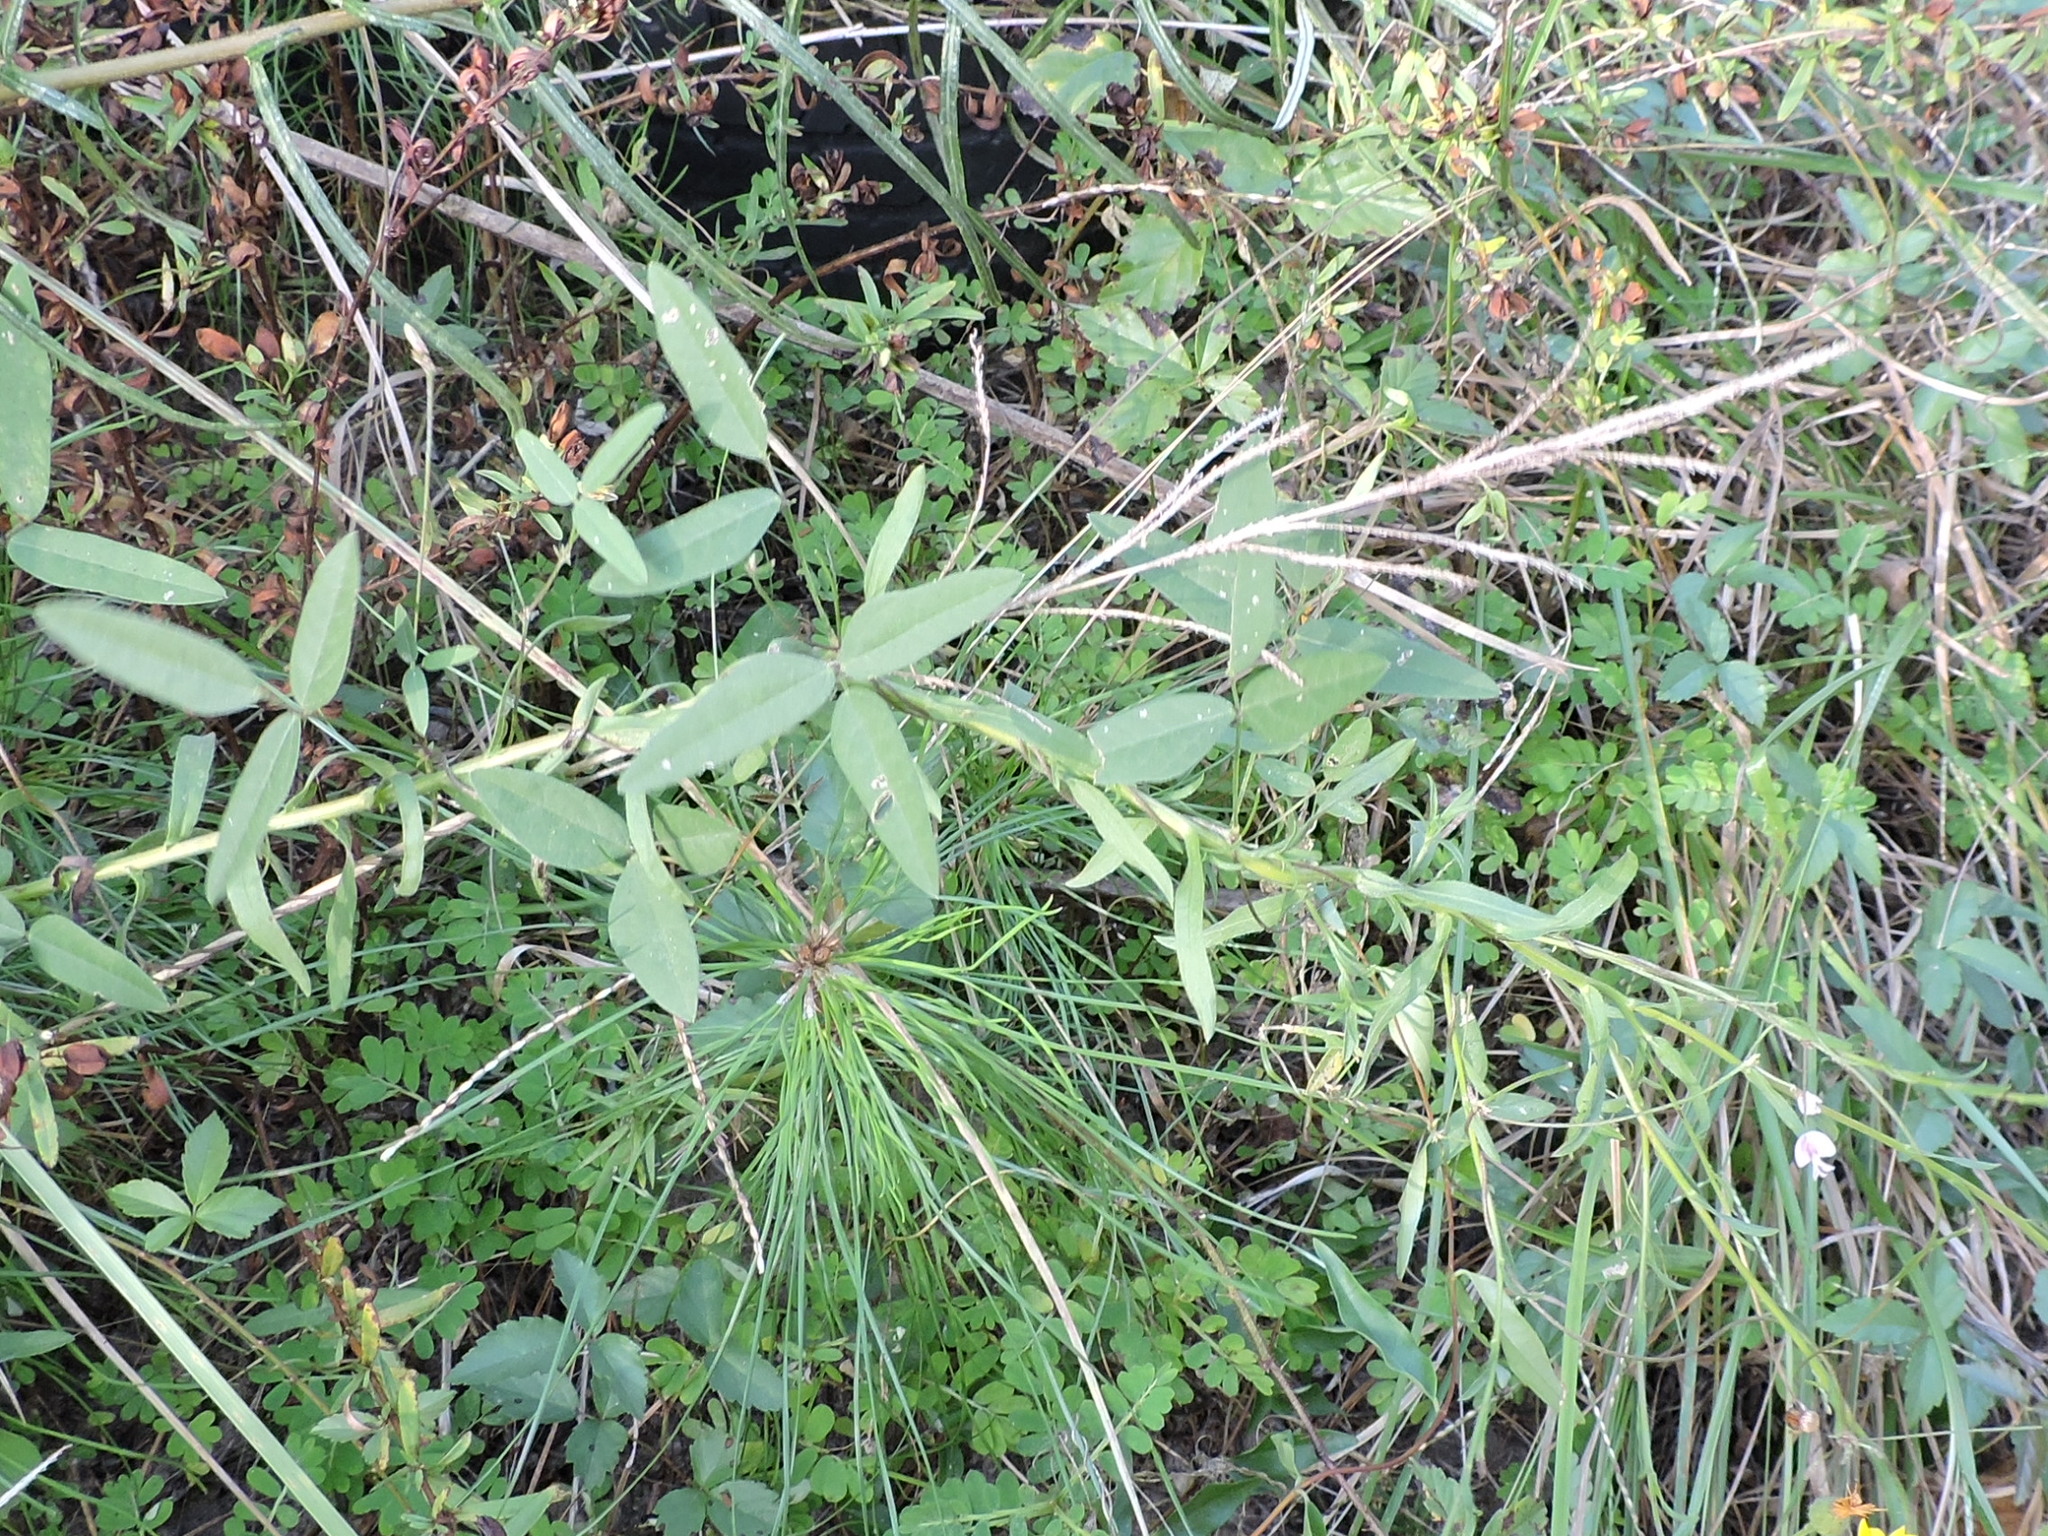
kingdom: Plantae
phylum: Tracheophyta
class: Magnoliopsida
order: Fabales
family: Fabaceae
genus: Strophostyles
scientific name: Strophostyles leiosperma
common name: Smooth-seed wild bean
